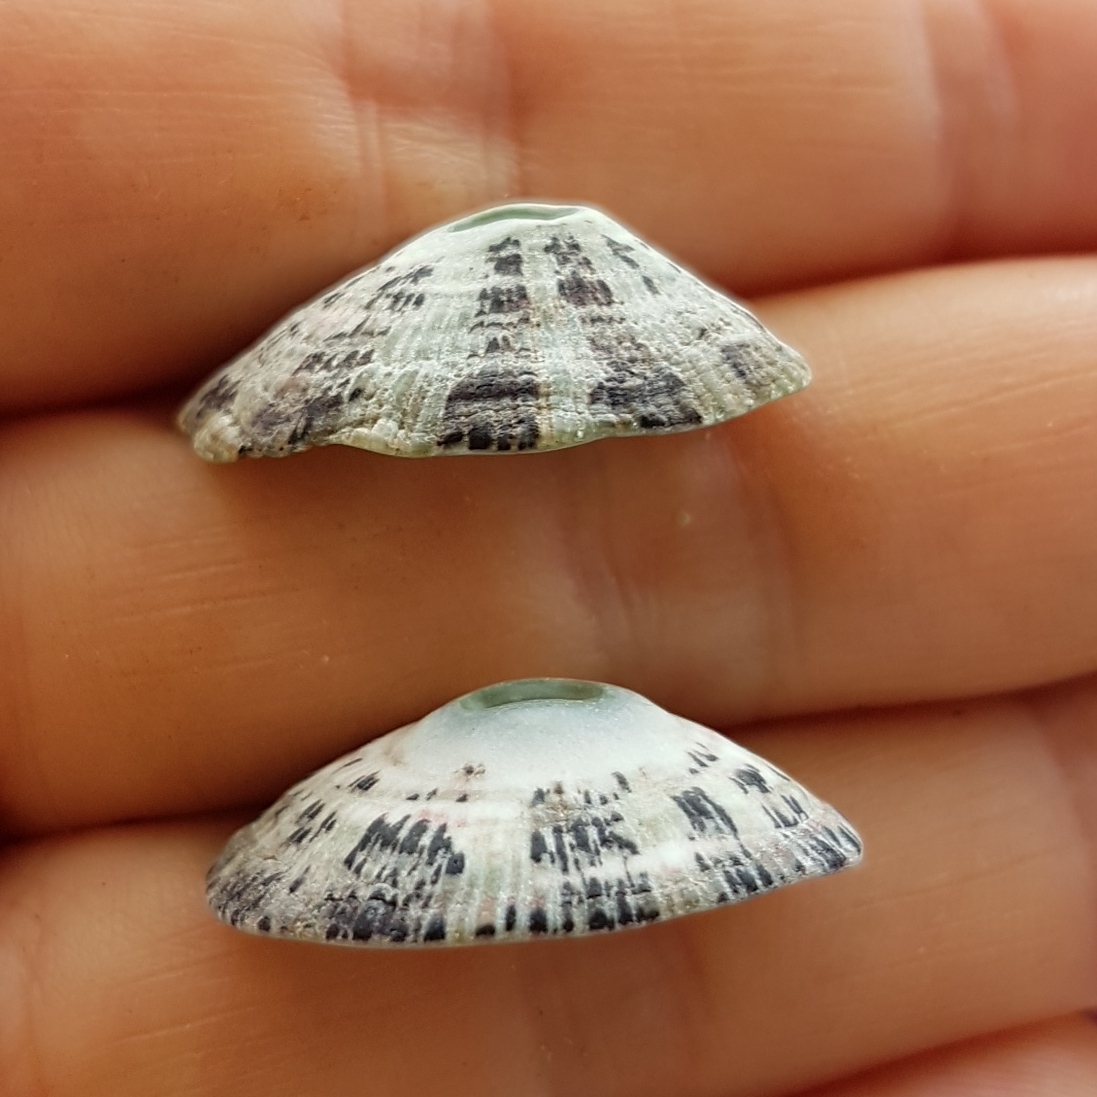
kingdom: Animalia
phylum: Mollusca
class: Gastropoda
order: Lepetellida
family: Fissurellidae
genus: Fissurella
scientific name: Fissurella virescens
